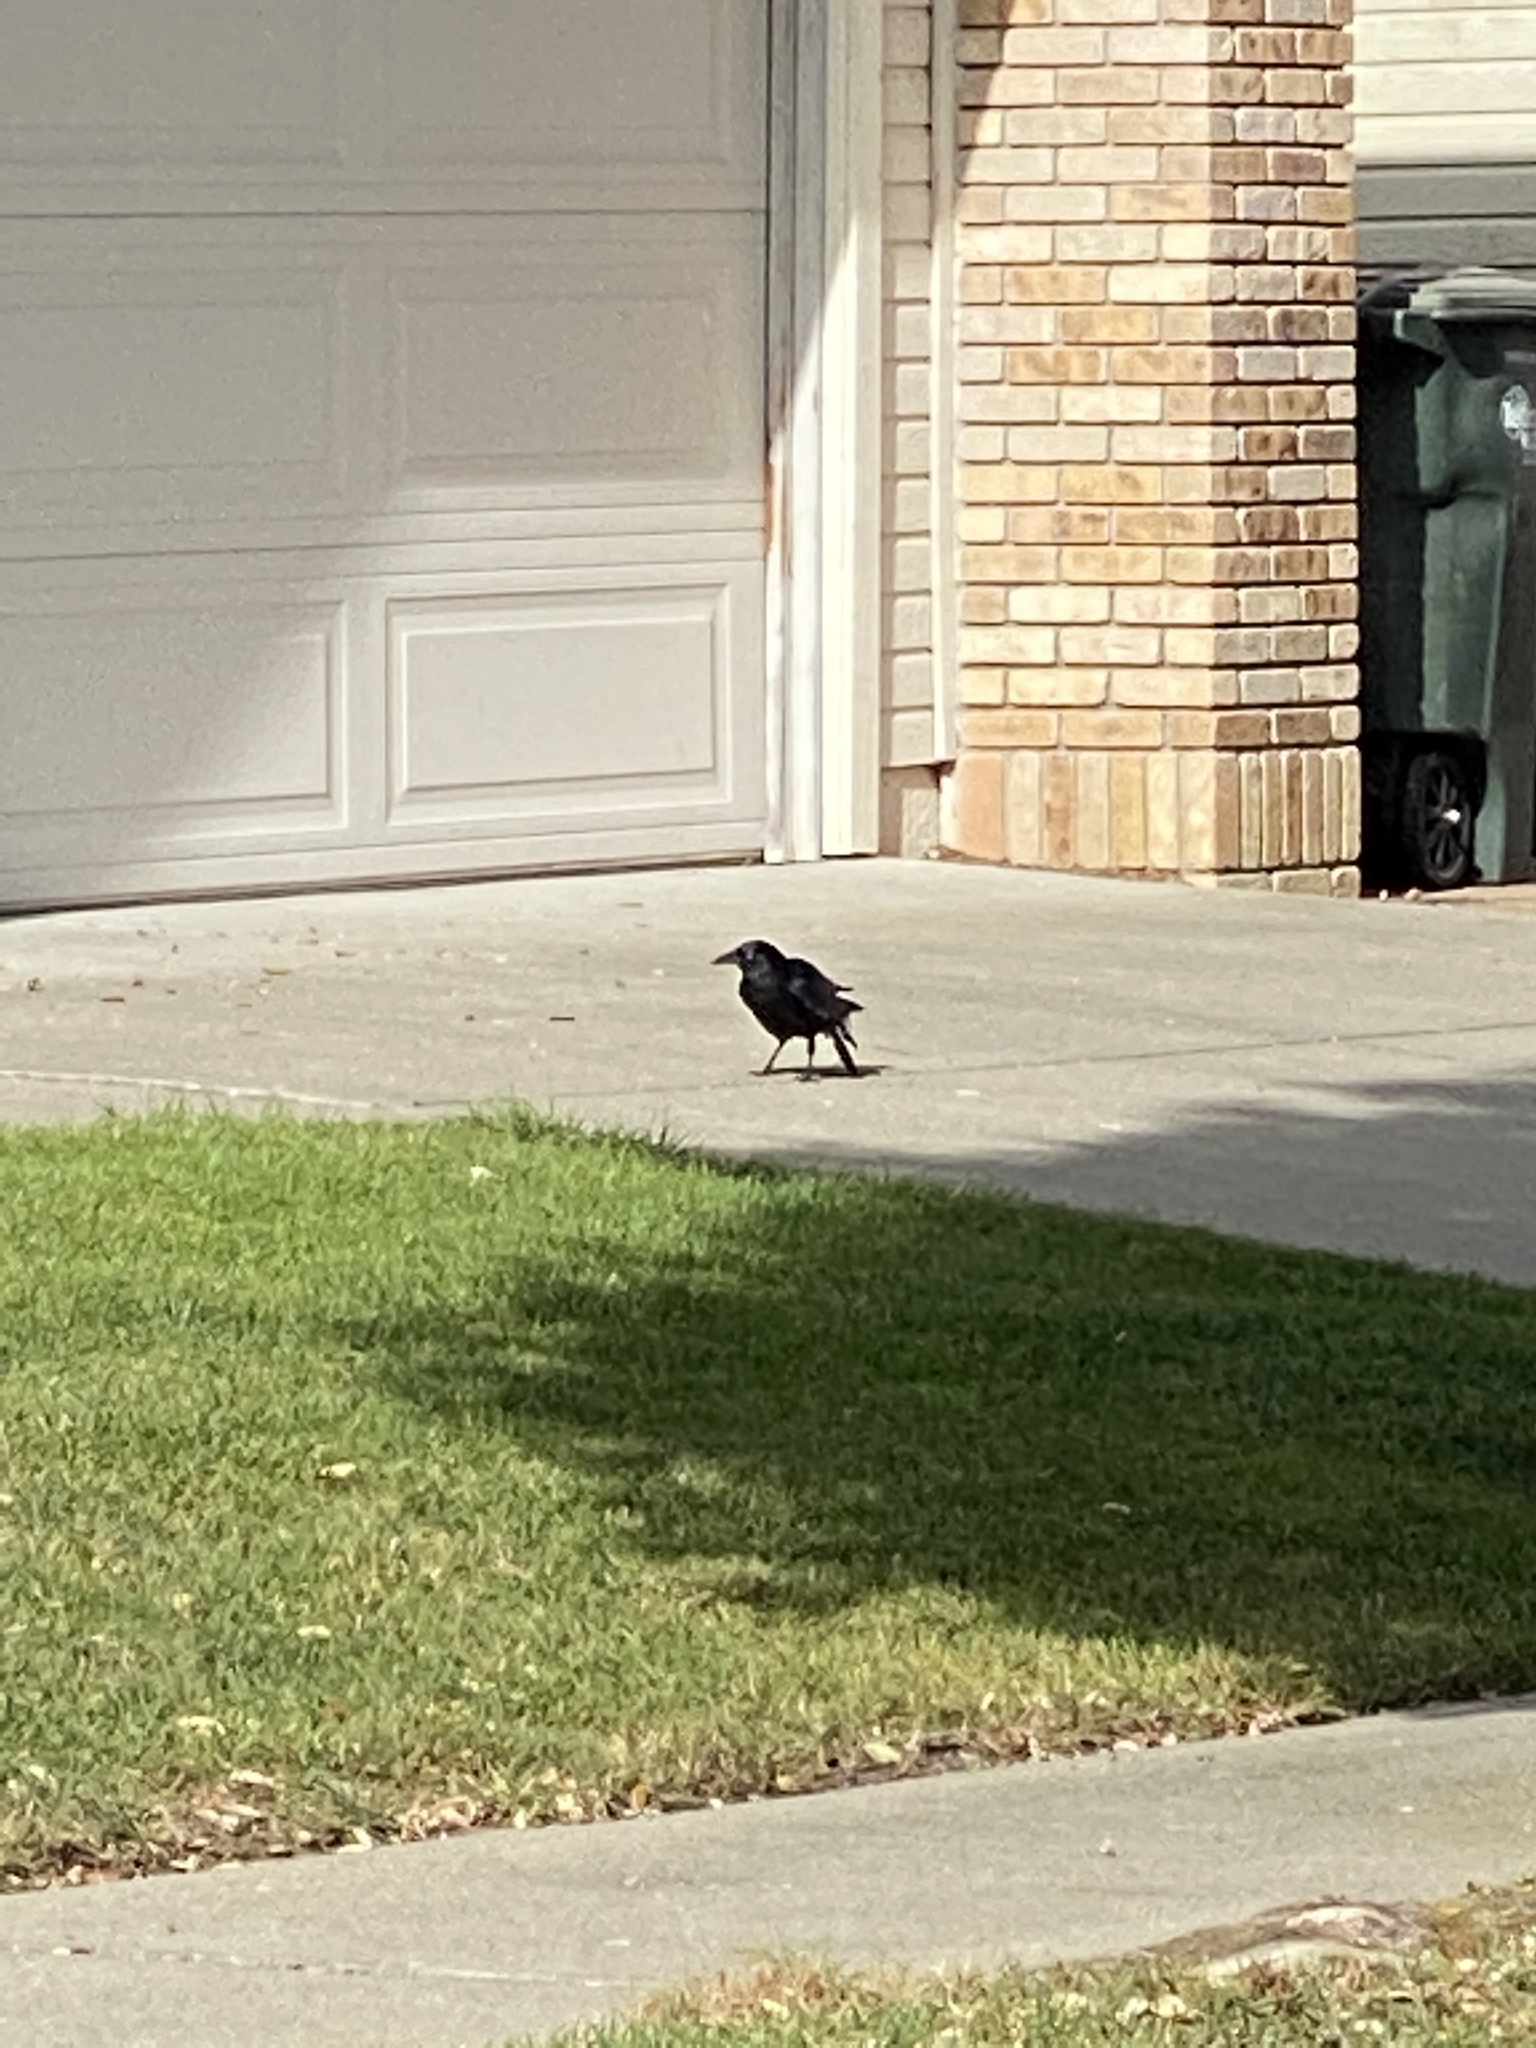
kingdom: Animalia
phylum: Chordata
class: Aves
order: Passeriformes
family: Corvidae
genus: Corvus
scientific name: Corvus brachyrhynchos
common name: American crow
